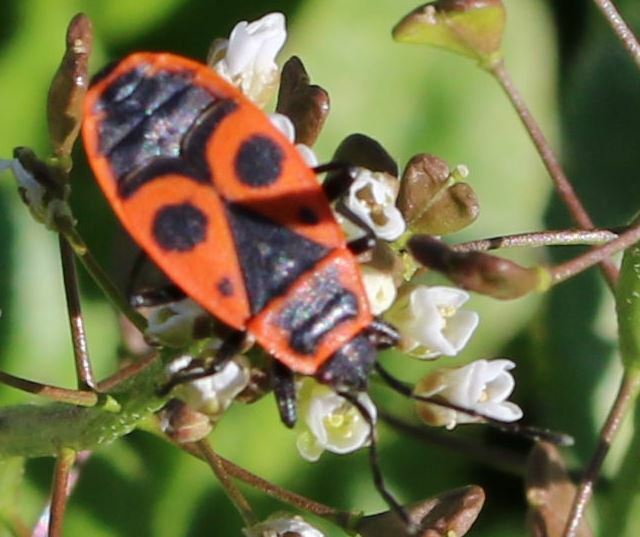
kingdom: Animalia
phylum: Arthropoda
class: Insecta
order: Hemiptera
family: Pyrrhocoridae
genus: Pyrrhocoris
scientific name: Pyrrhocoris apterus
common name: Firebug
